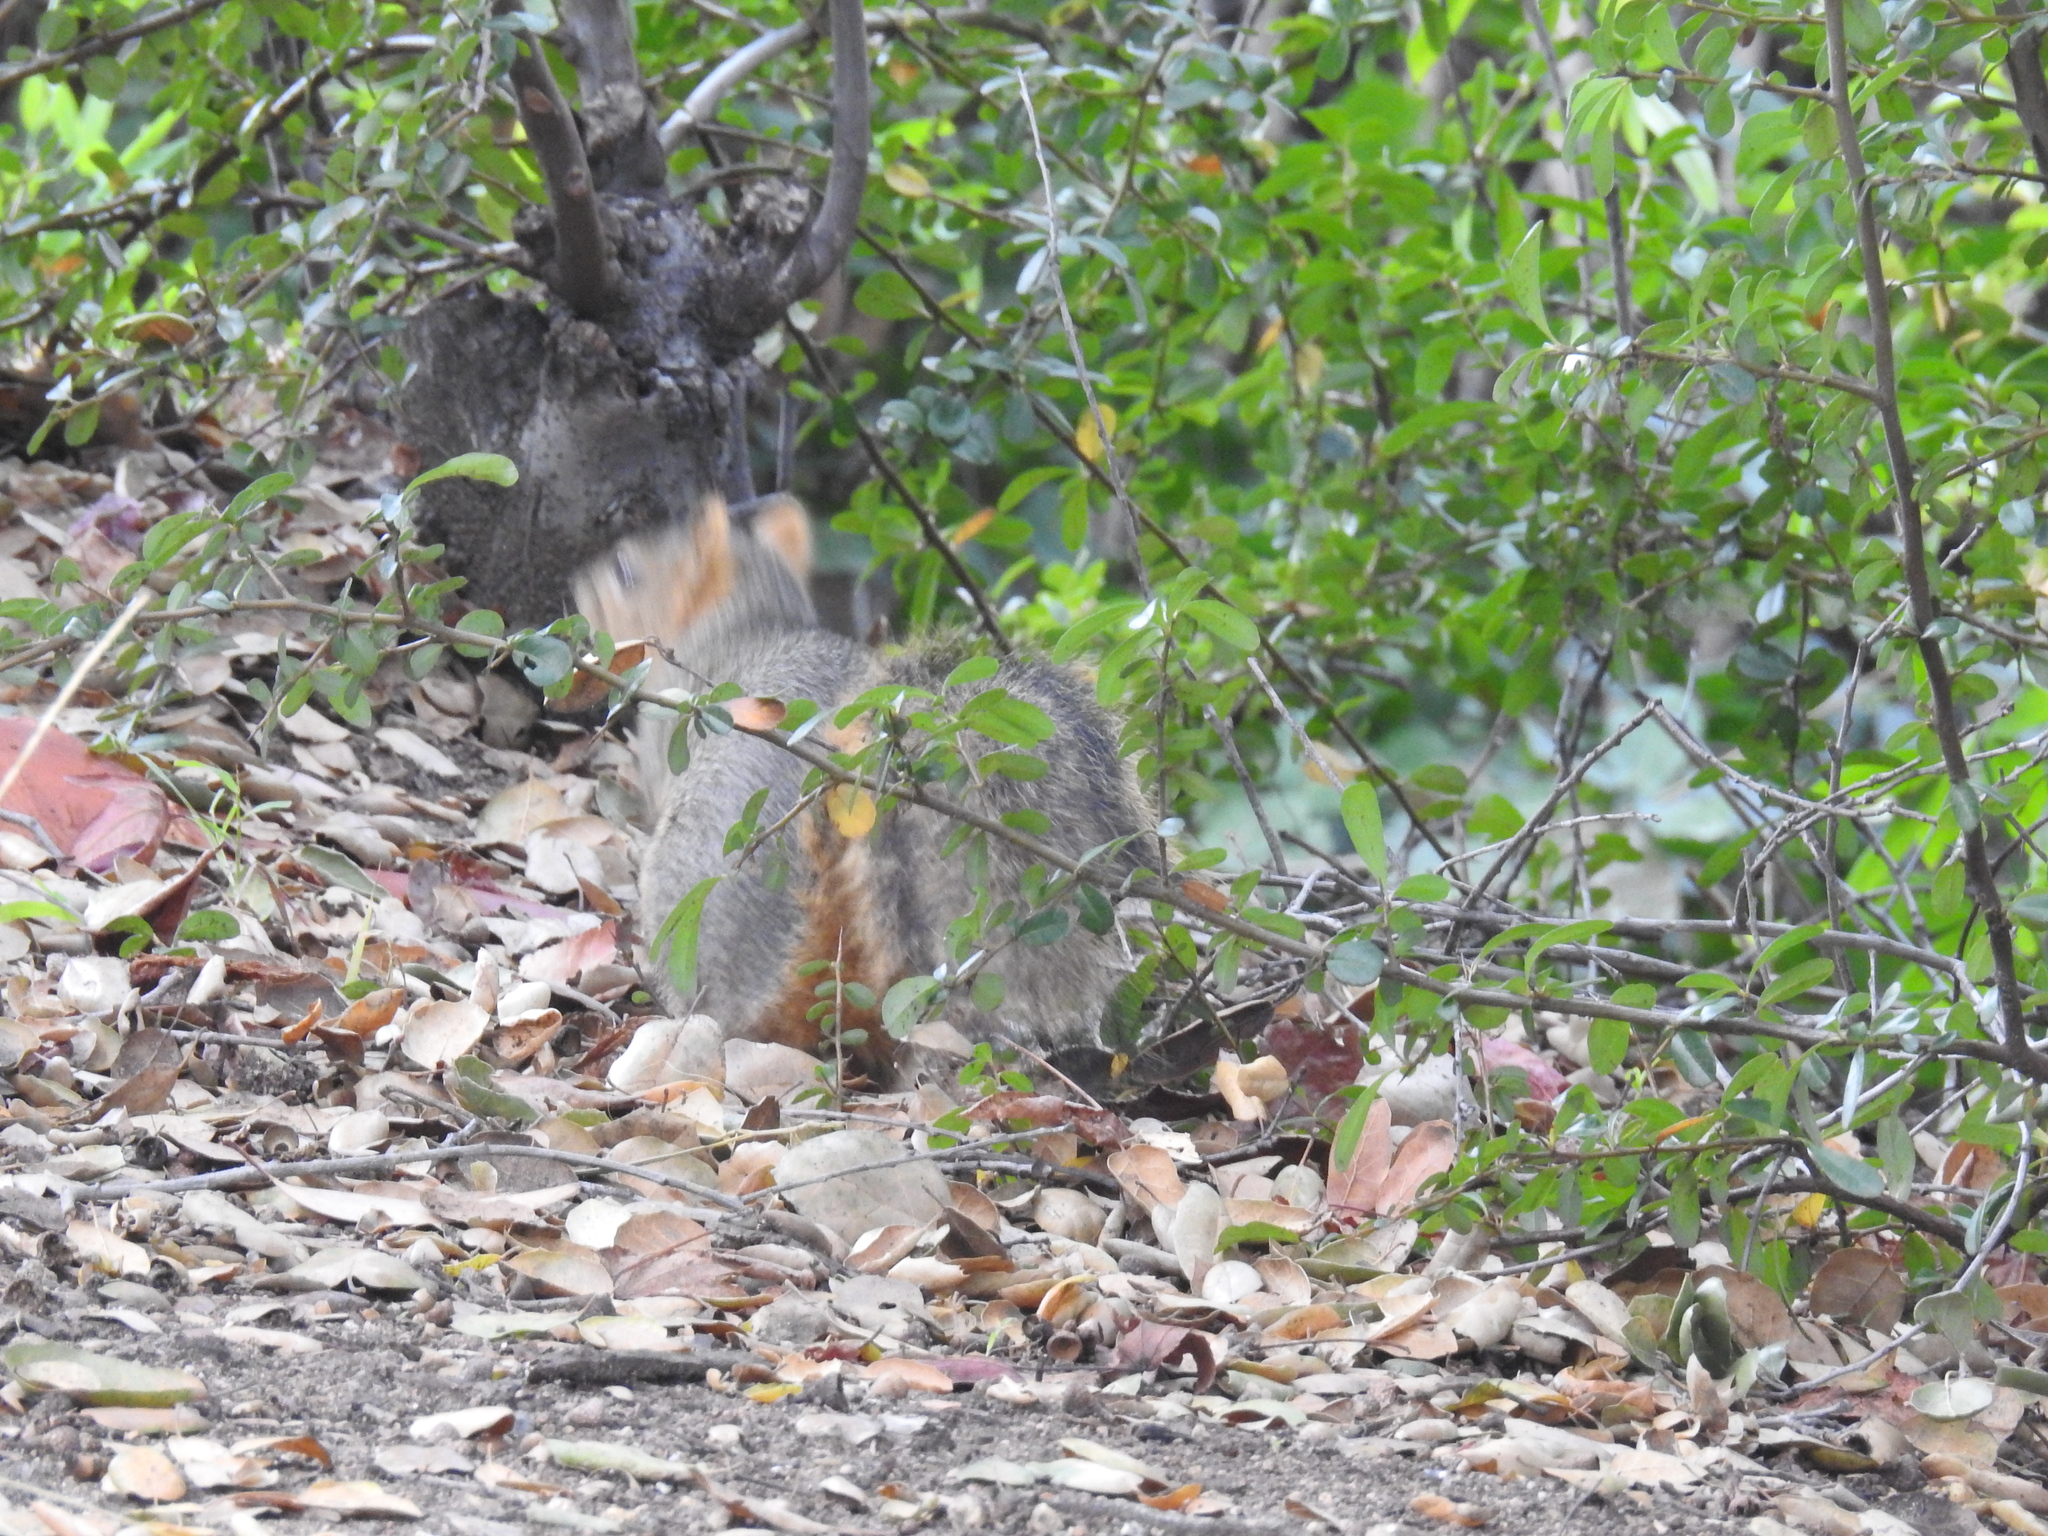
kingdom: Animalia
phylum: Chordata
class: Mammalia
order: Rodentia
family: Sciuridae
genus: Sciurus
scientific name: Sciurus niger
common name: Fox squirrel
